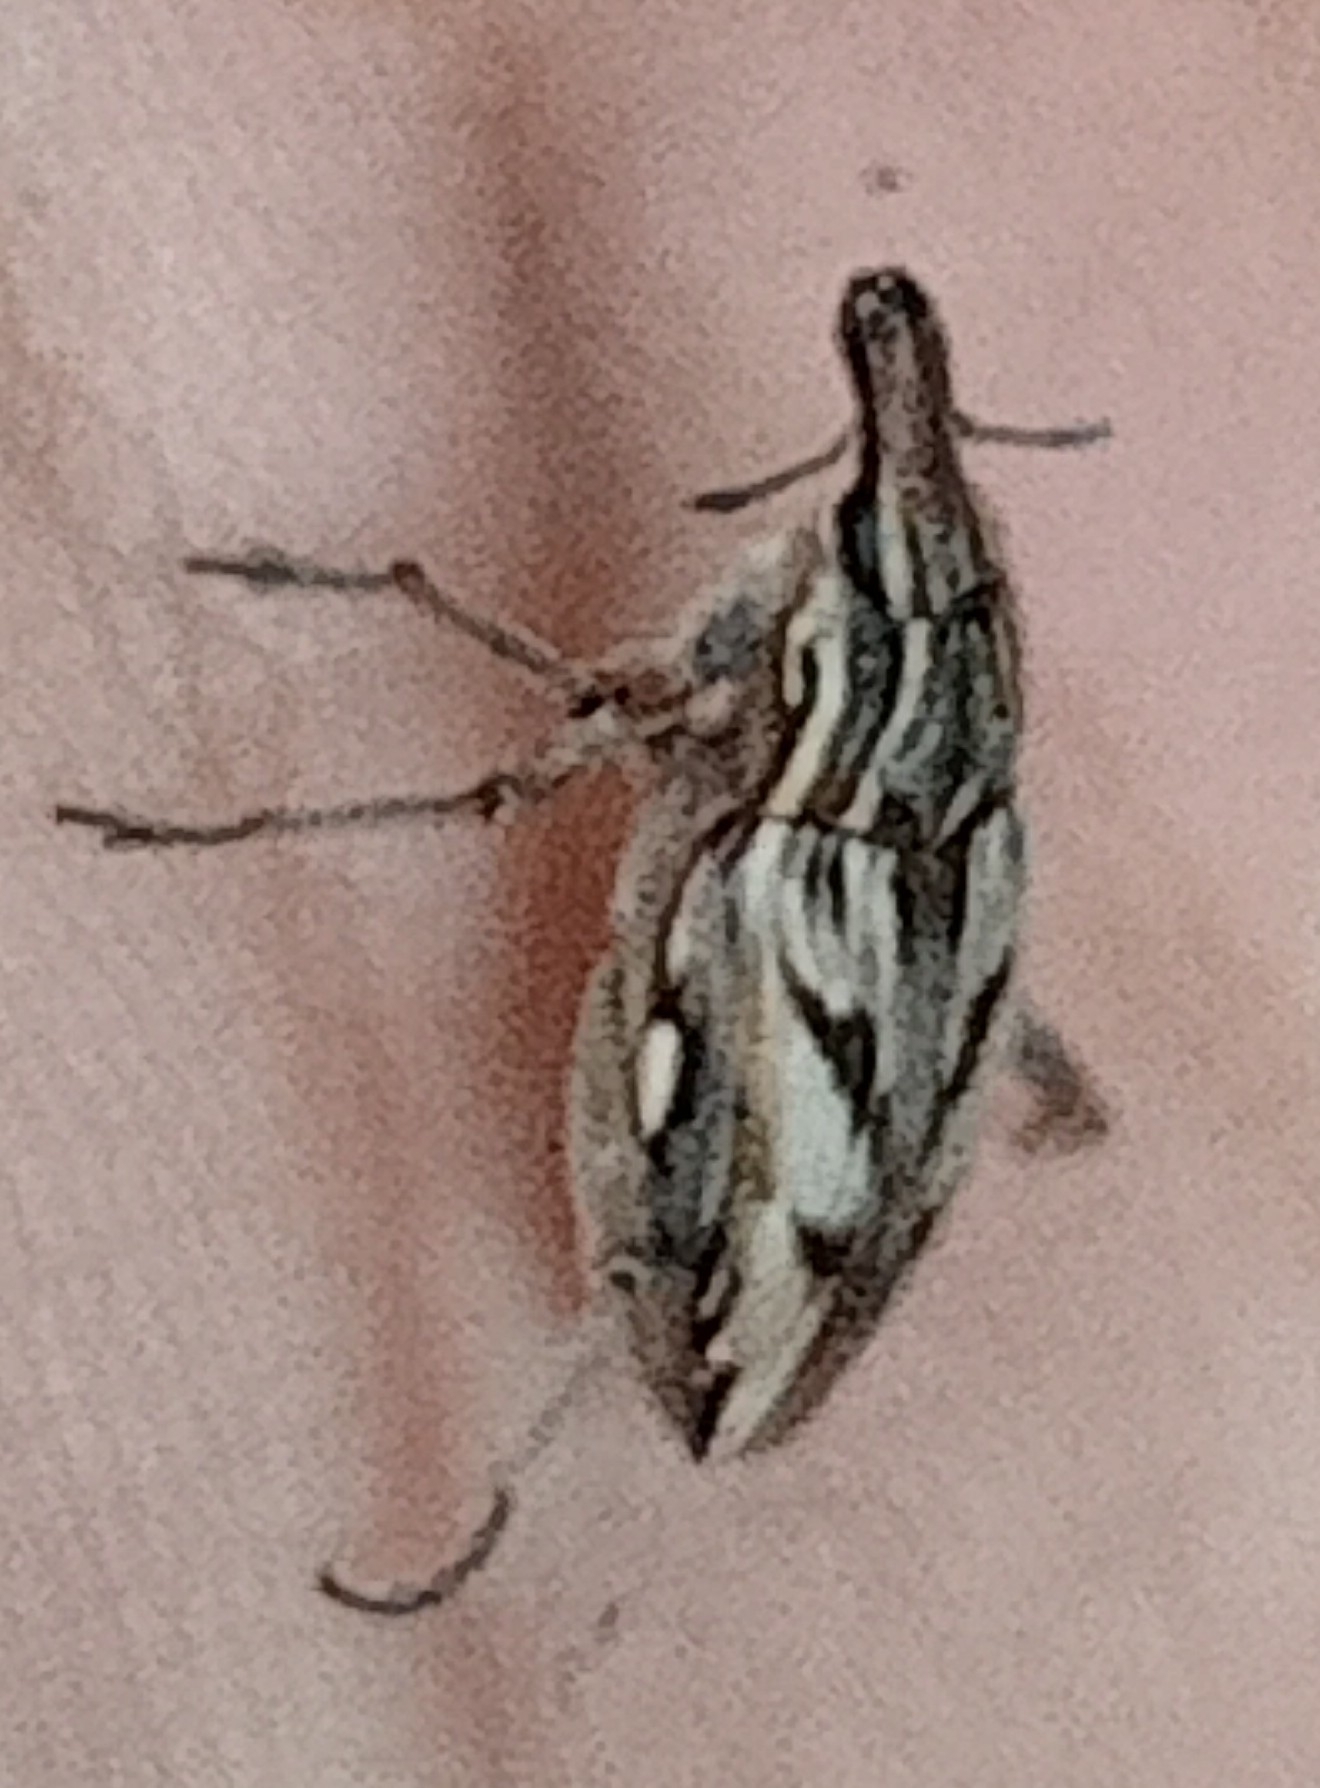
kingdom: Animalia
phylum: Arthropoda
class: Insecta
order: Coleoptera
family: Curculionidae
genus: Coniocleonus
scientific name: Coniocleonus nigrosuturatus
